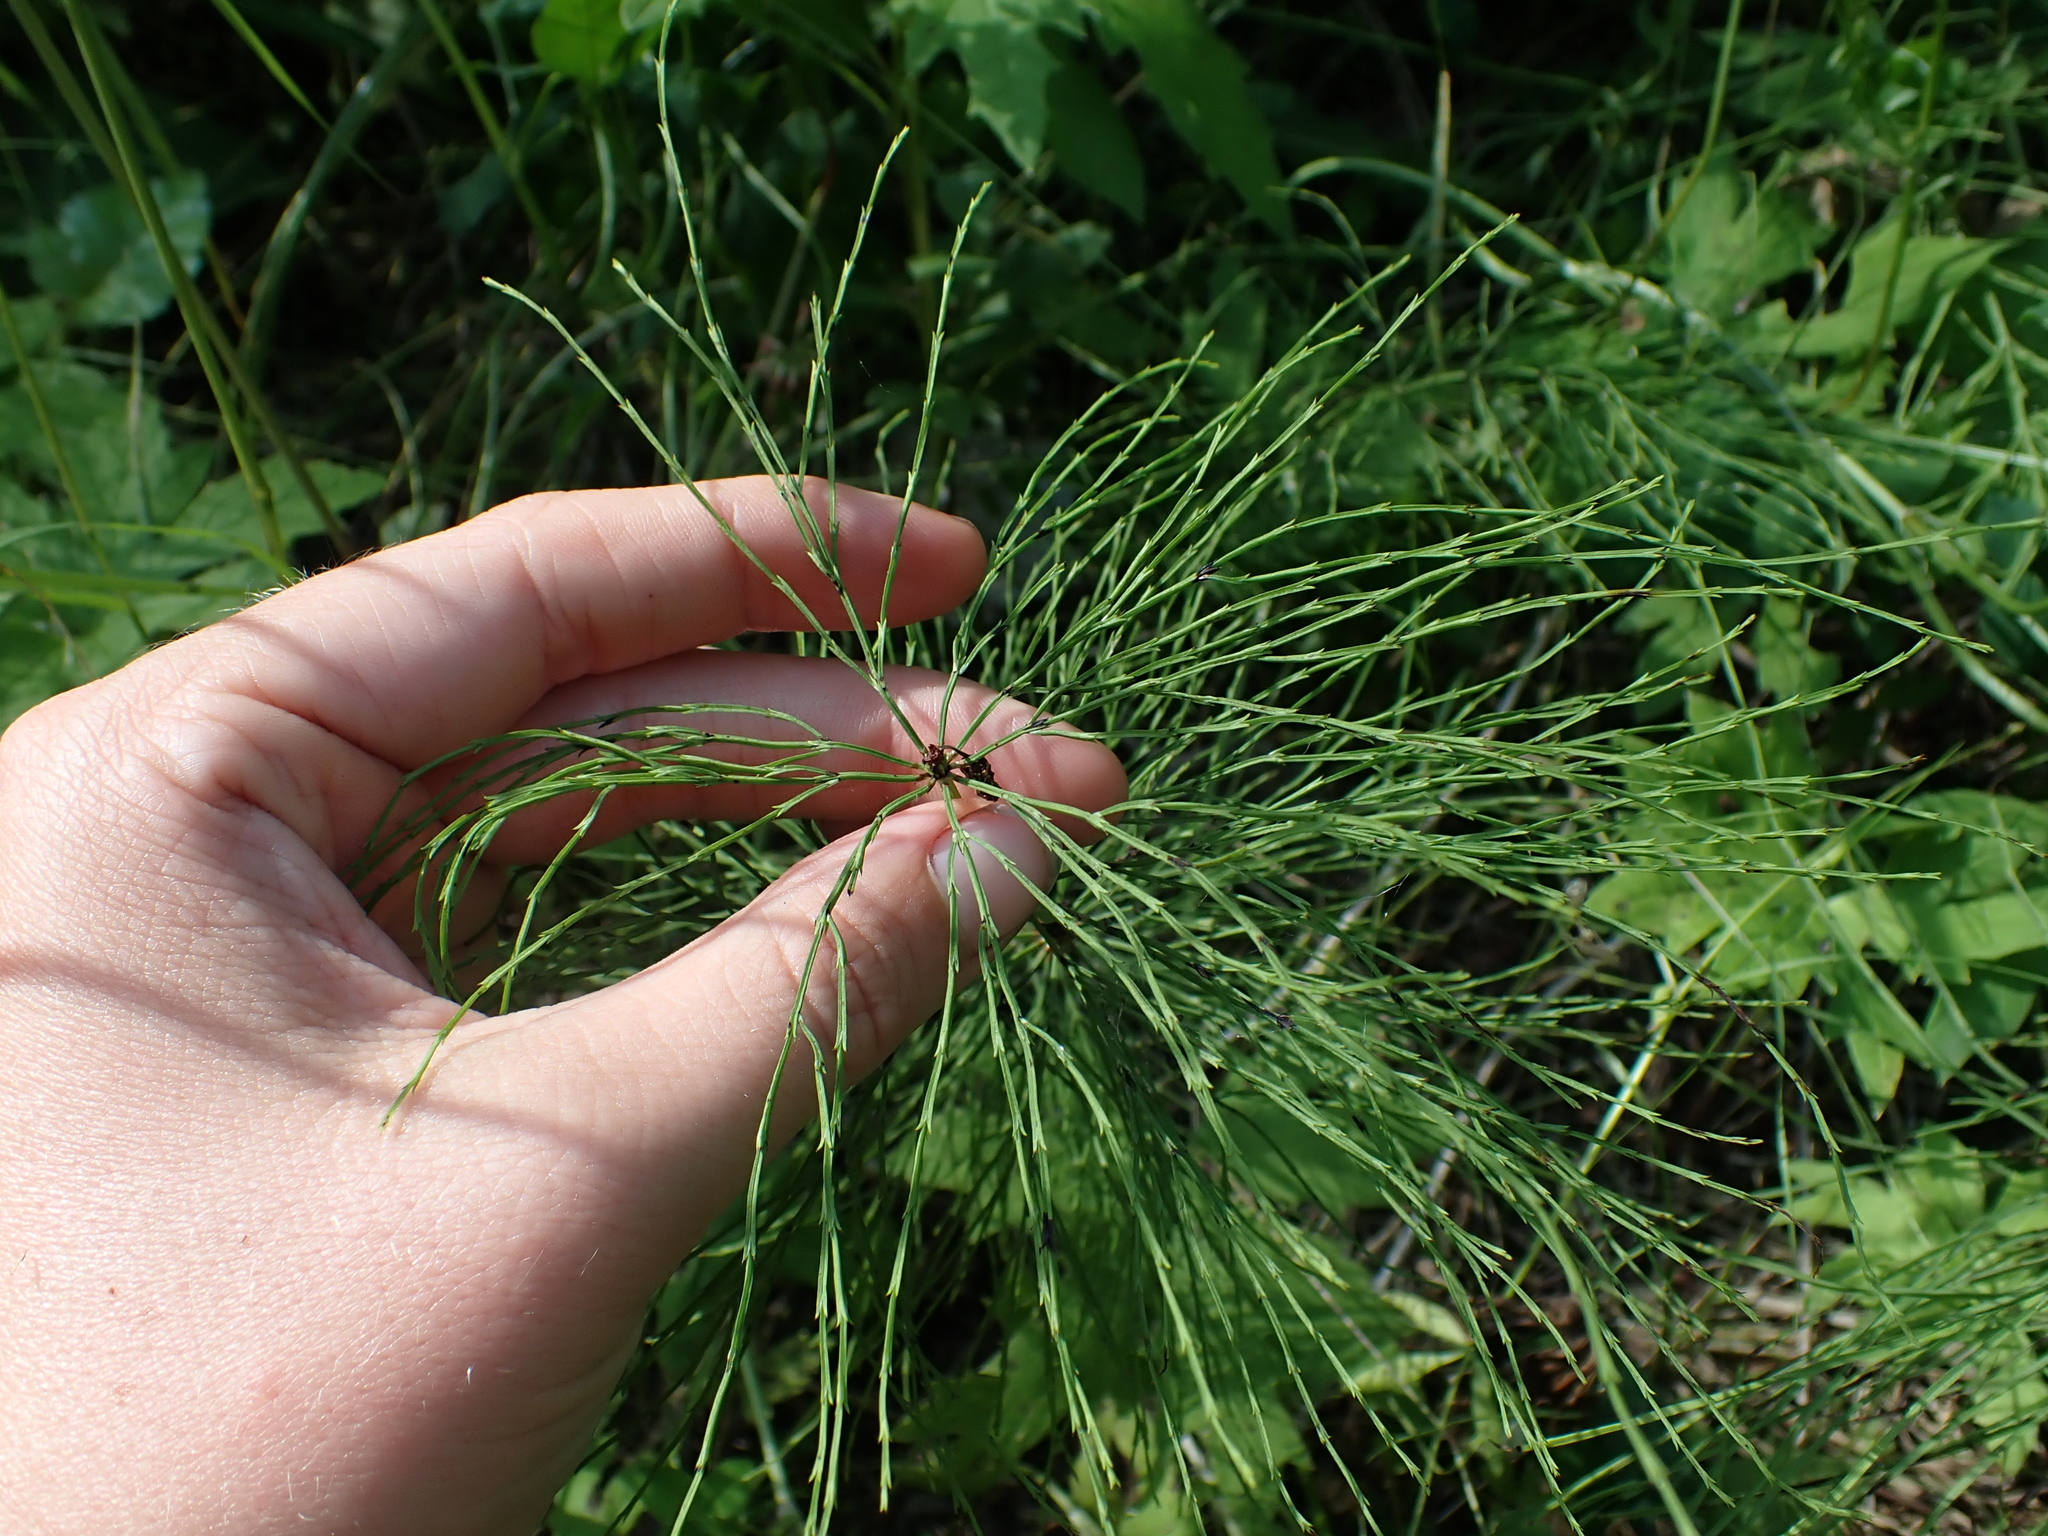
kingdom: Plantae
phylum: Tracheophyta
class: Polypodiopsida
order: Equisetales
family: Equisetaceae
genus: Equisetum
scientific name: Equisetum sylvaticum
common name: Wood horsetail
